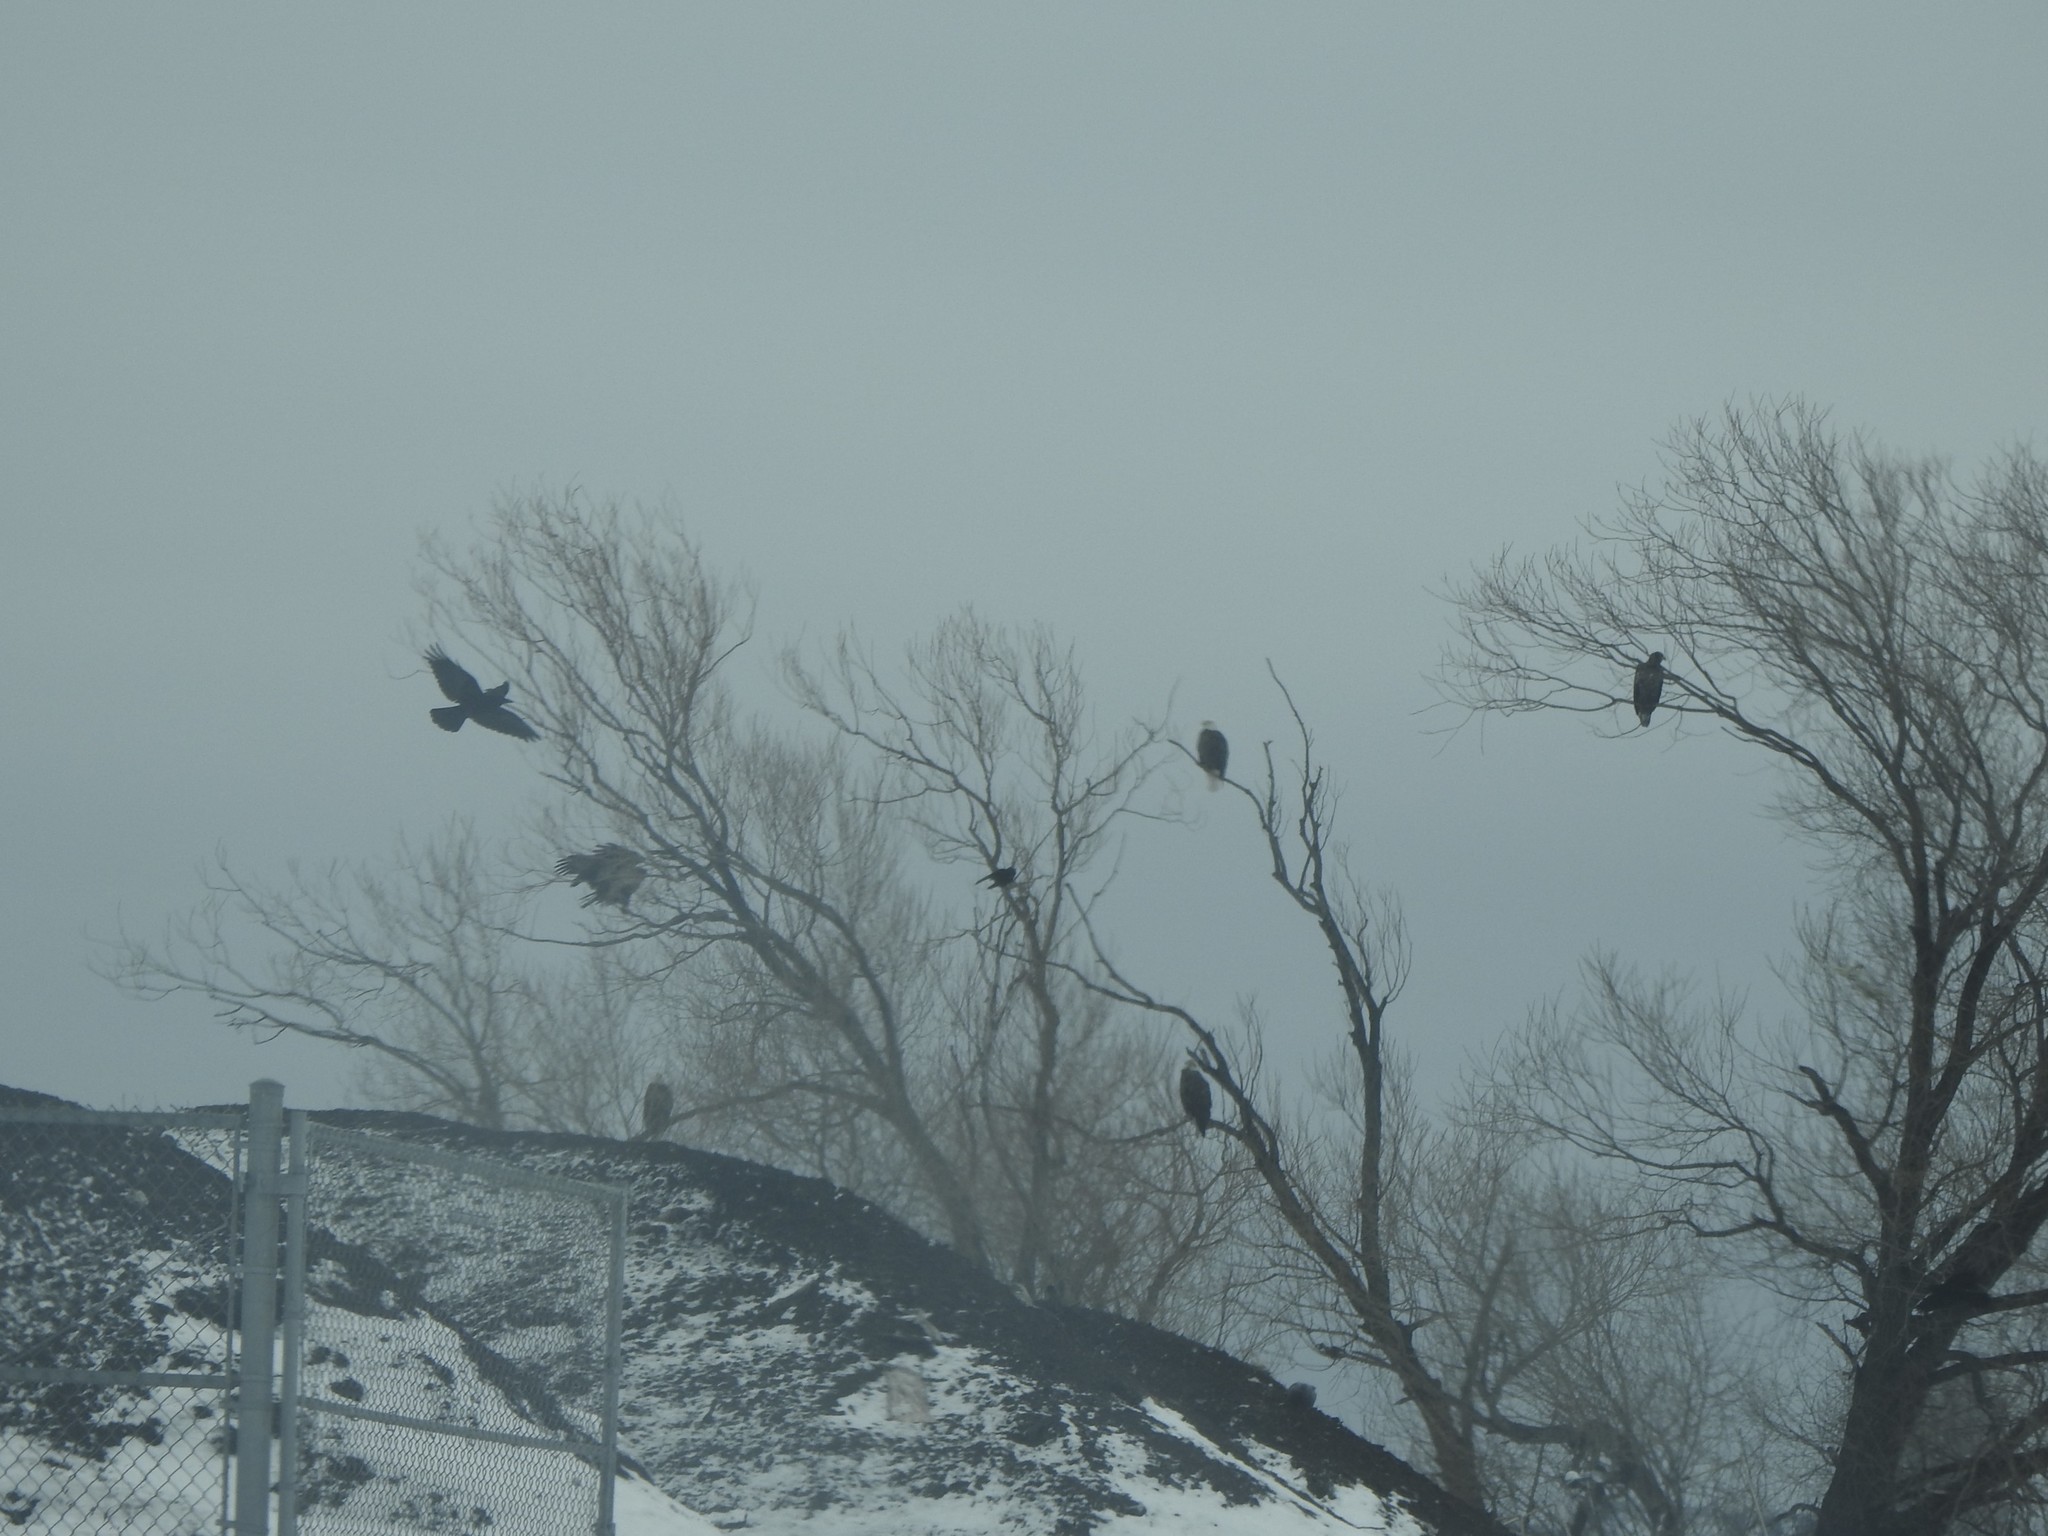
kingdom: Animalia
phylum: Chordata
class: Aves
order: Accipitriformes
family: Accipitridae
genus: Haliaeetus
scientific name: Haliaeetus leucocephalus
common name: Bald eagle
